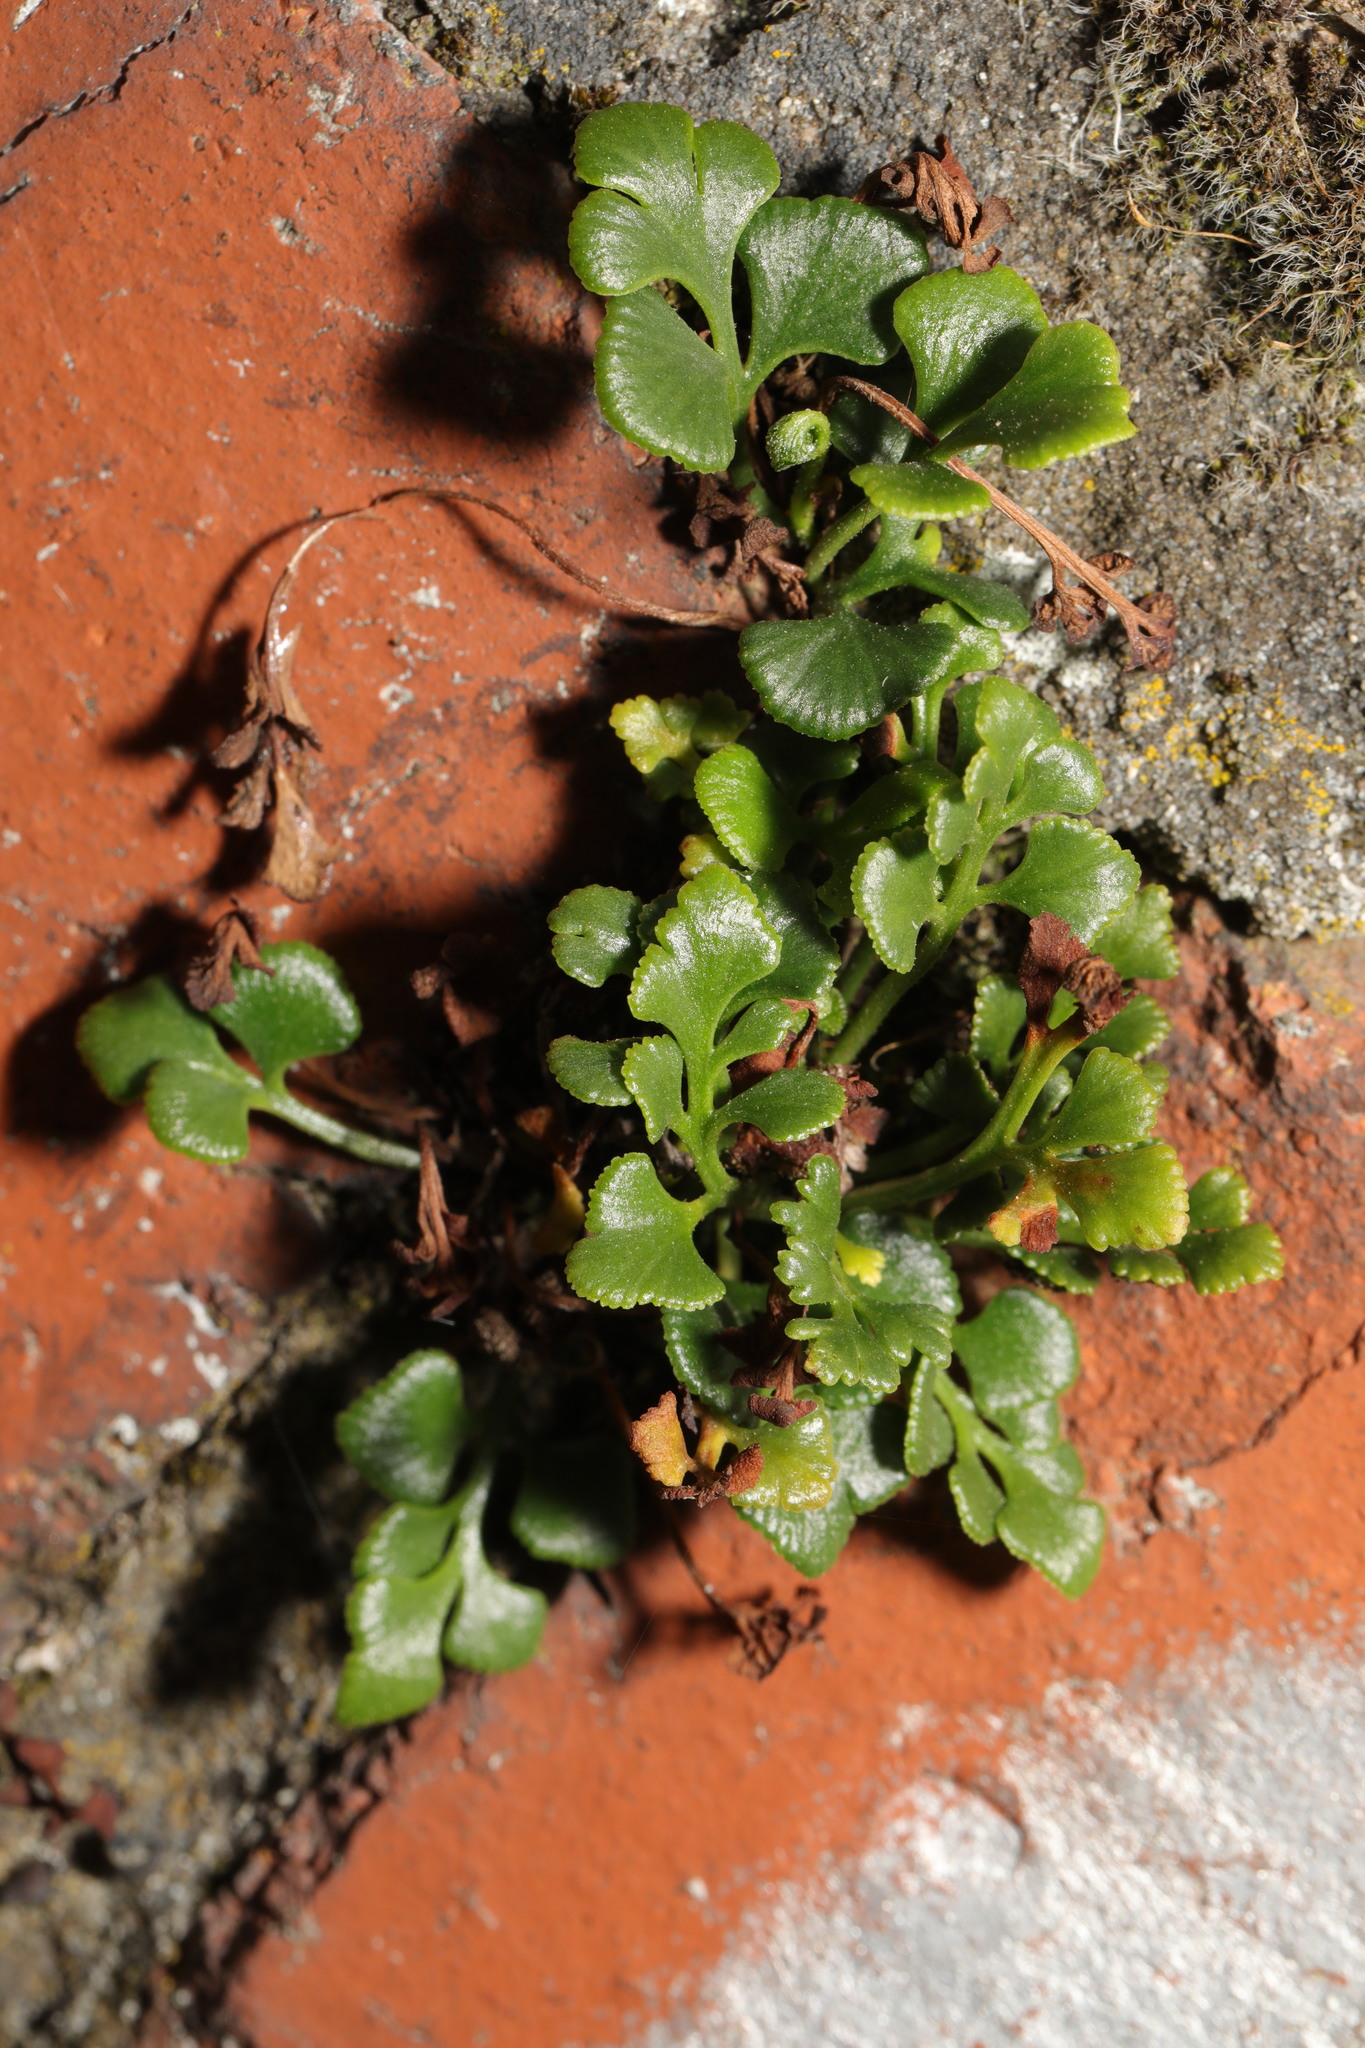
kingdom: Plantae
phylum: Tracheophyta
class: Polypodiopsida
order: Polypodiales
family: Aspleniaceae
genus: Asplenium
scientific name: Asplenium ruta-muraria
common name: Wall-rue
